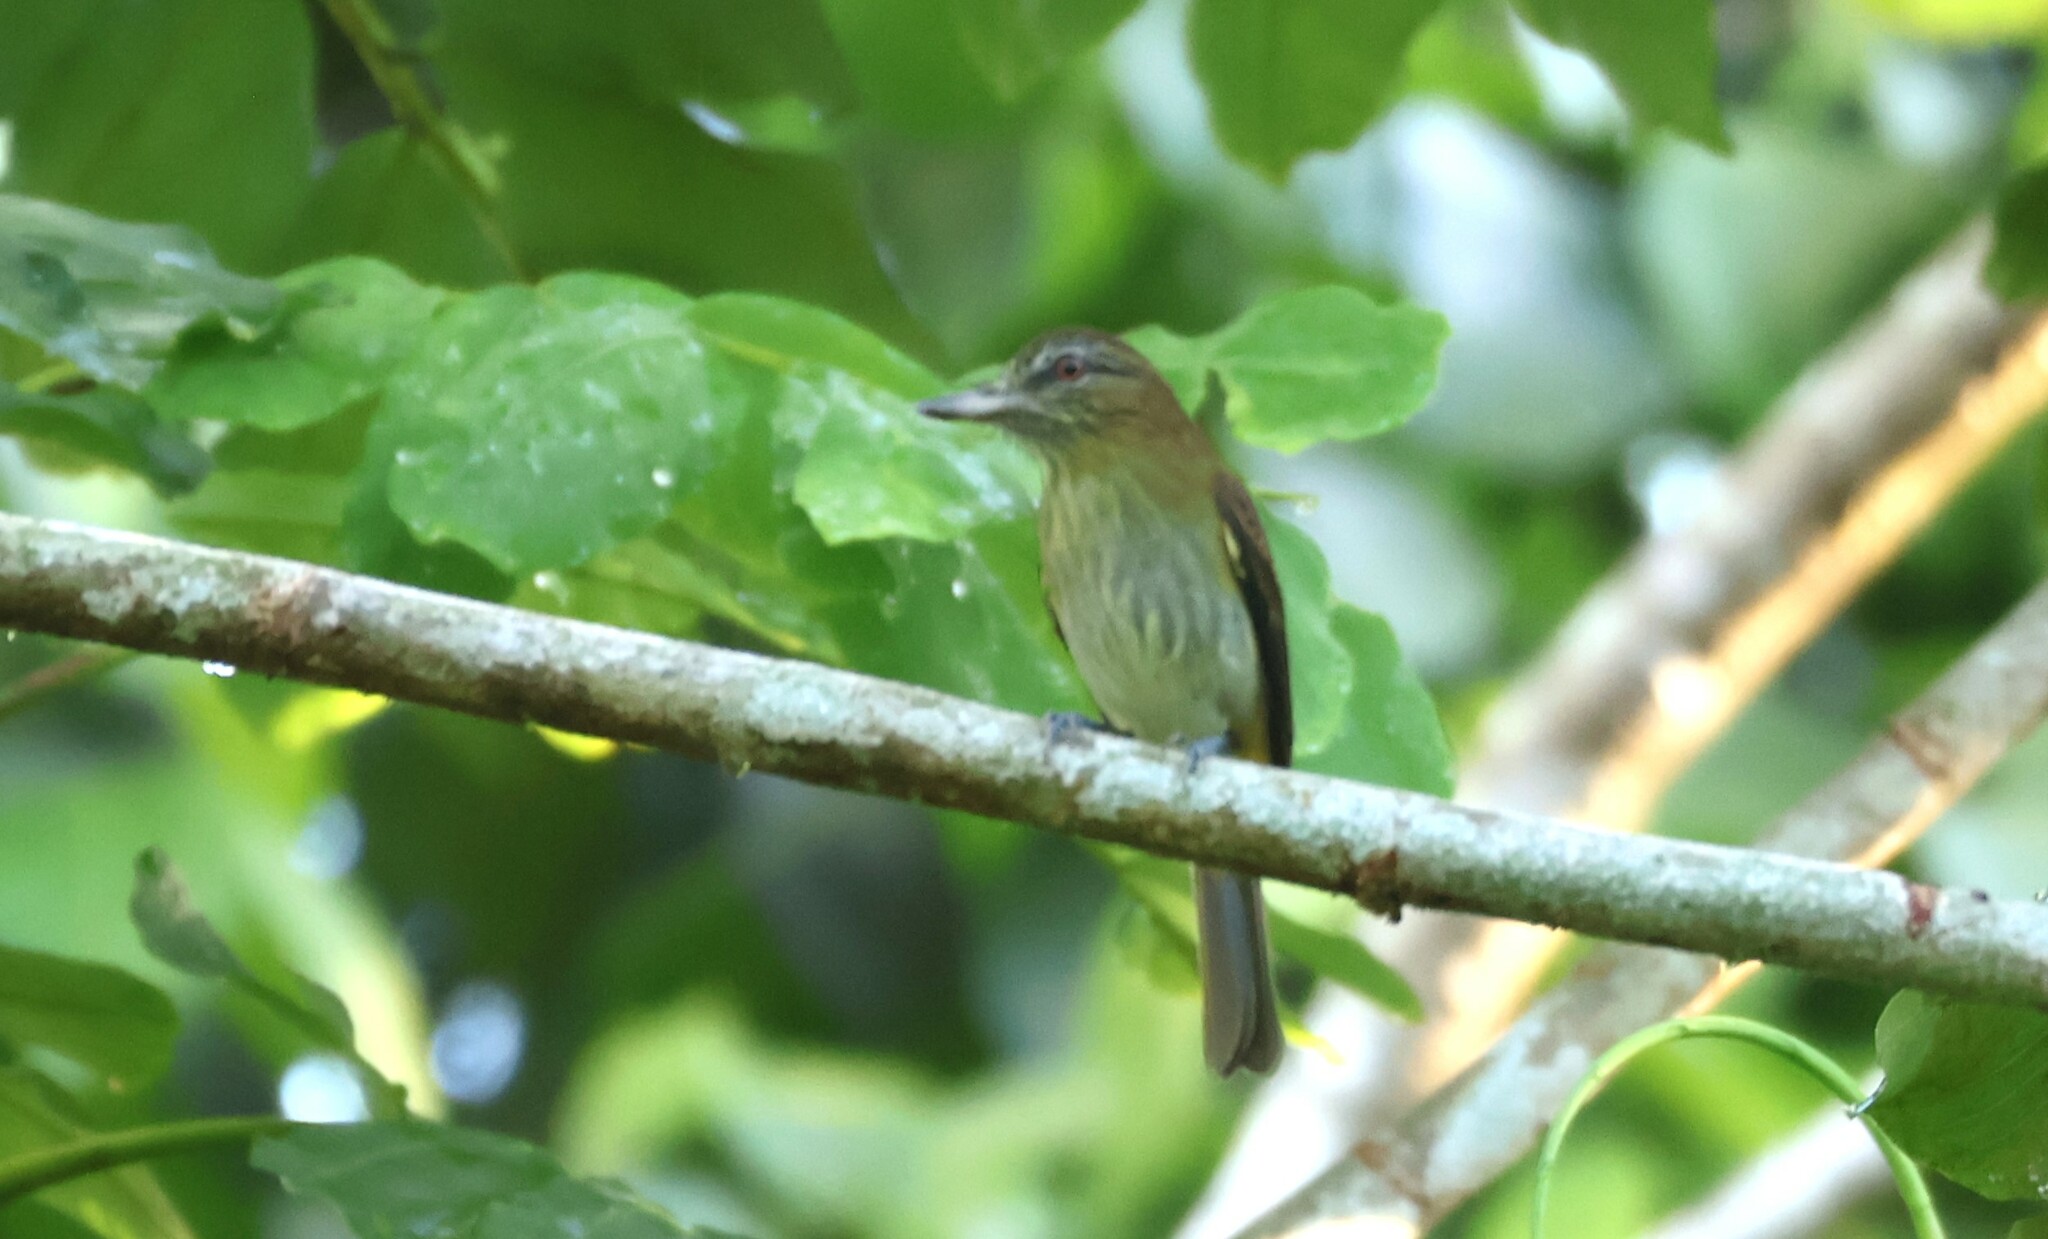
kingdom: Animalia
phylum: Chordata
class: Aves
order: Passeriformes
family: Tyrannidae
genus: Attila
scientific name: Attila spadiceus
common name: Bright-rumped attila
